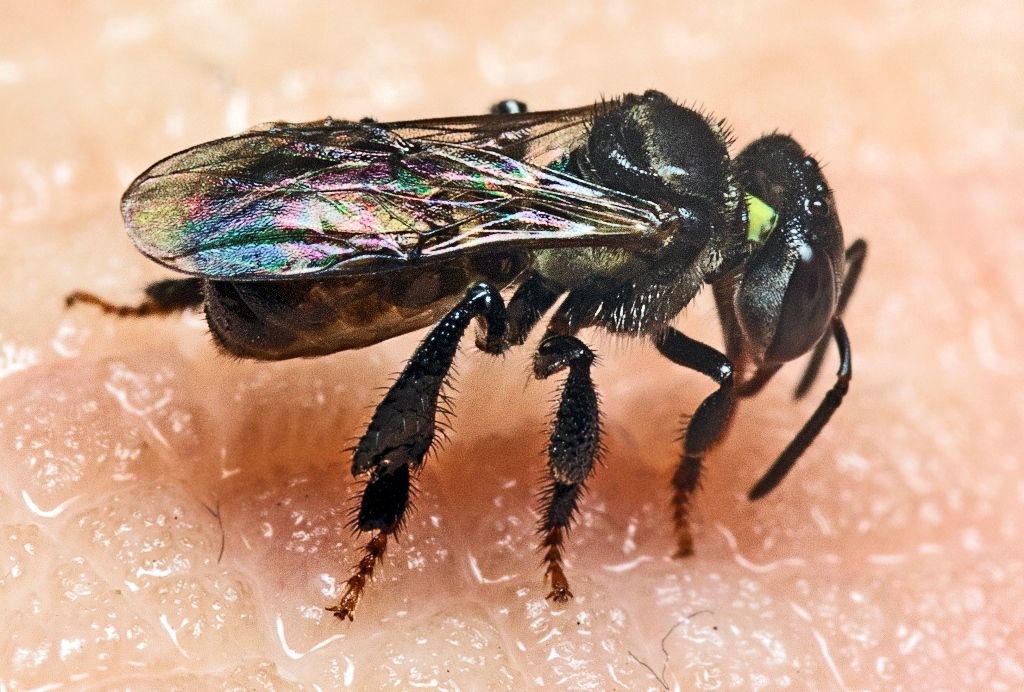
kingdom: Animalia
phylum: Arthropoda
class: Insecta
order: Hymenoptera
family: Apidae
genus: Heterotrigona
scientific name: Heterotrigona itama
